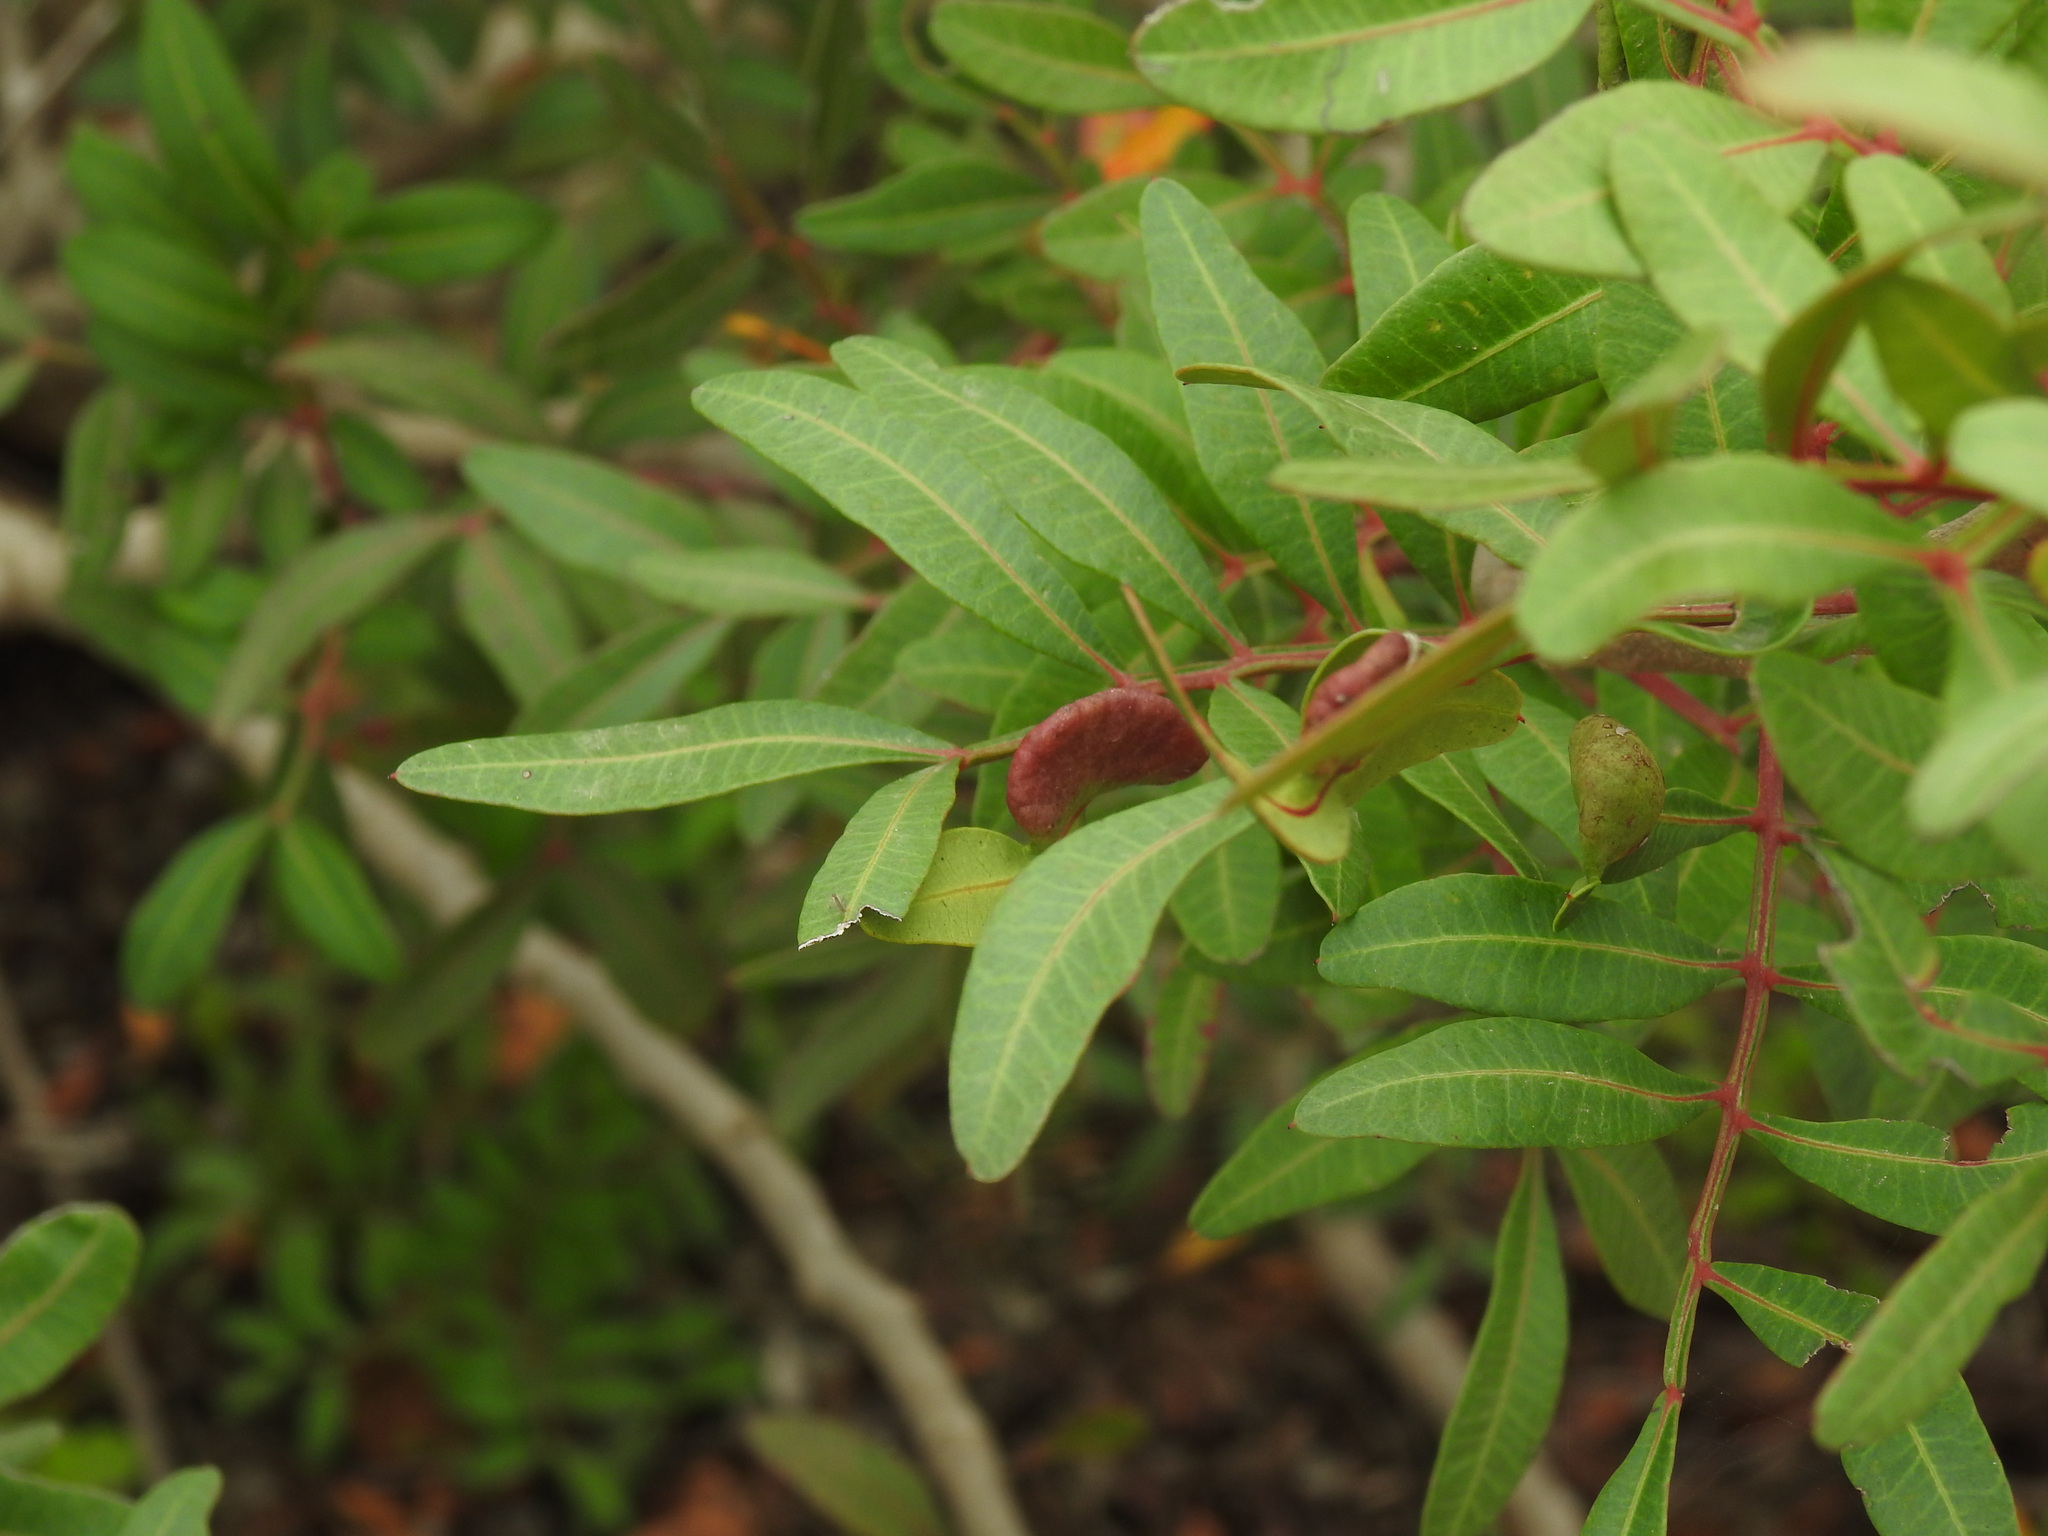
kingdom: Animalia
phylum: Arthropoda
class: Insecta
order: Hemiptera
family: Aphididae
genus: Aploneura
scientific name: Aploneura lentisci
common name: Mealy grass root aphid
